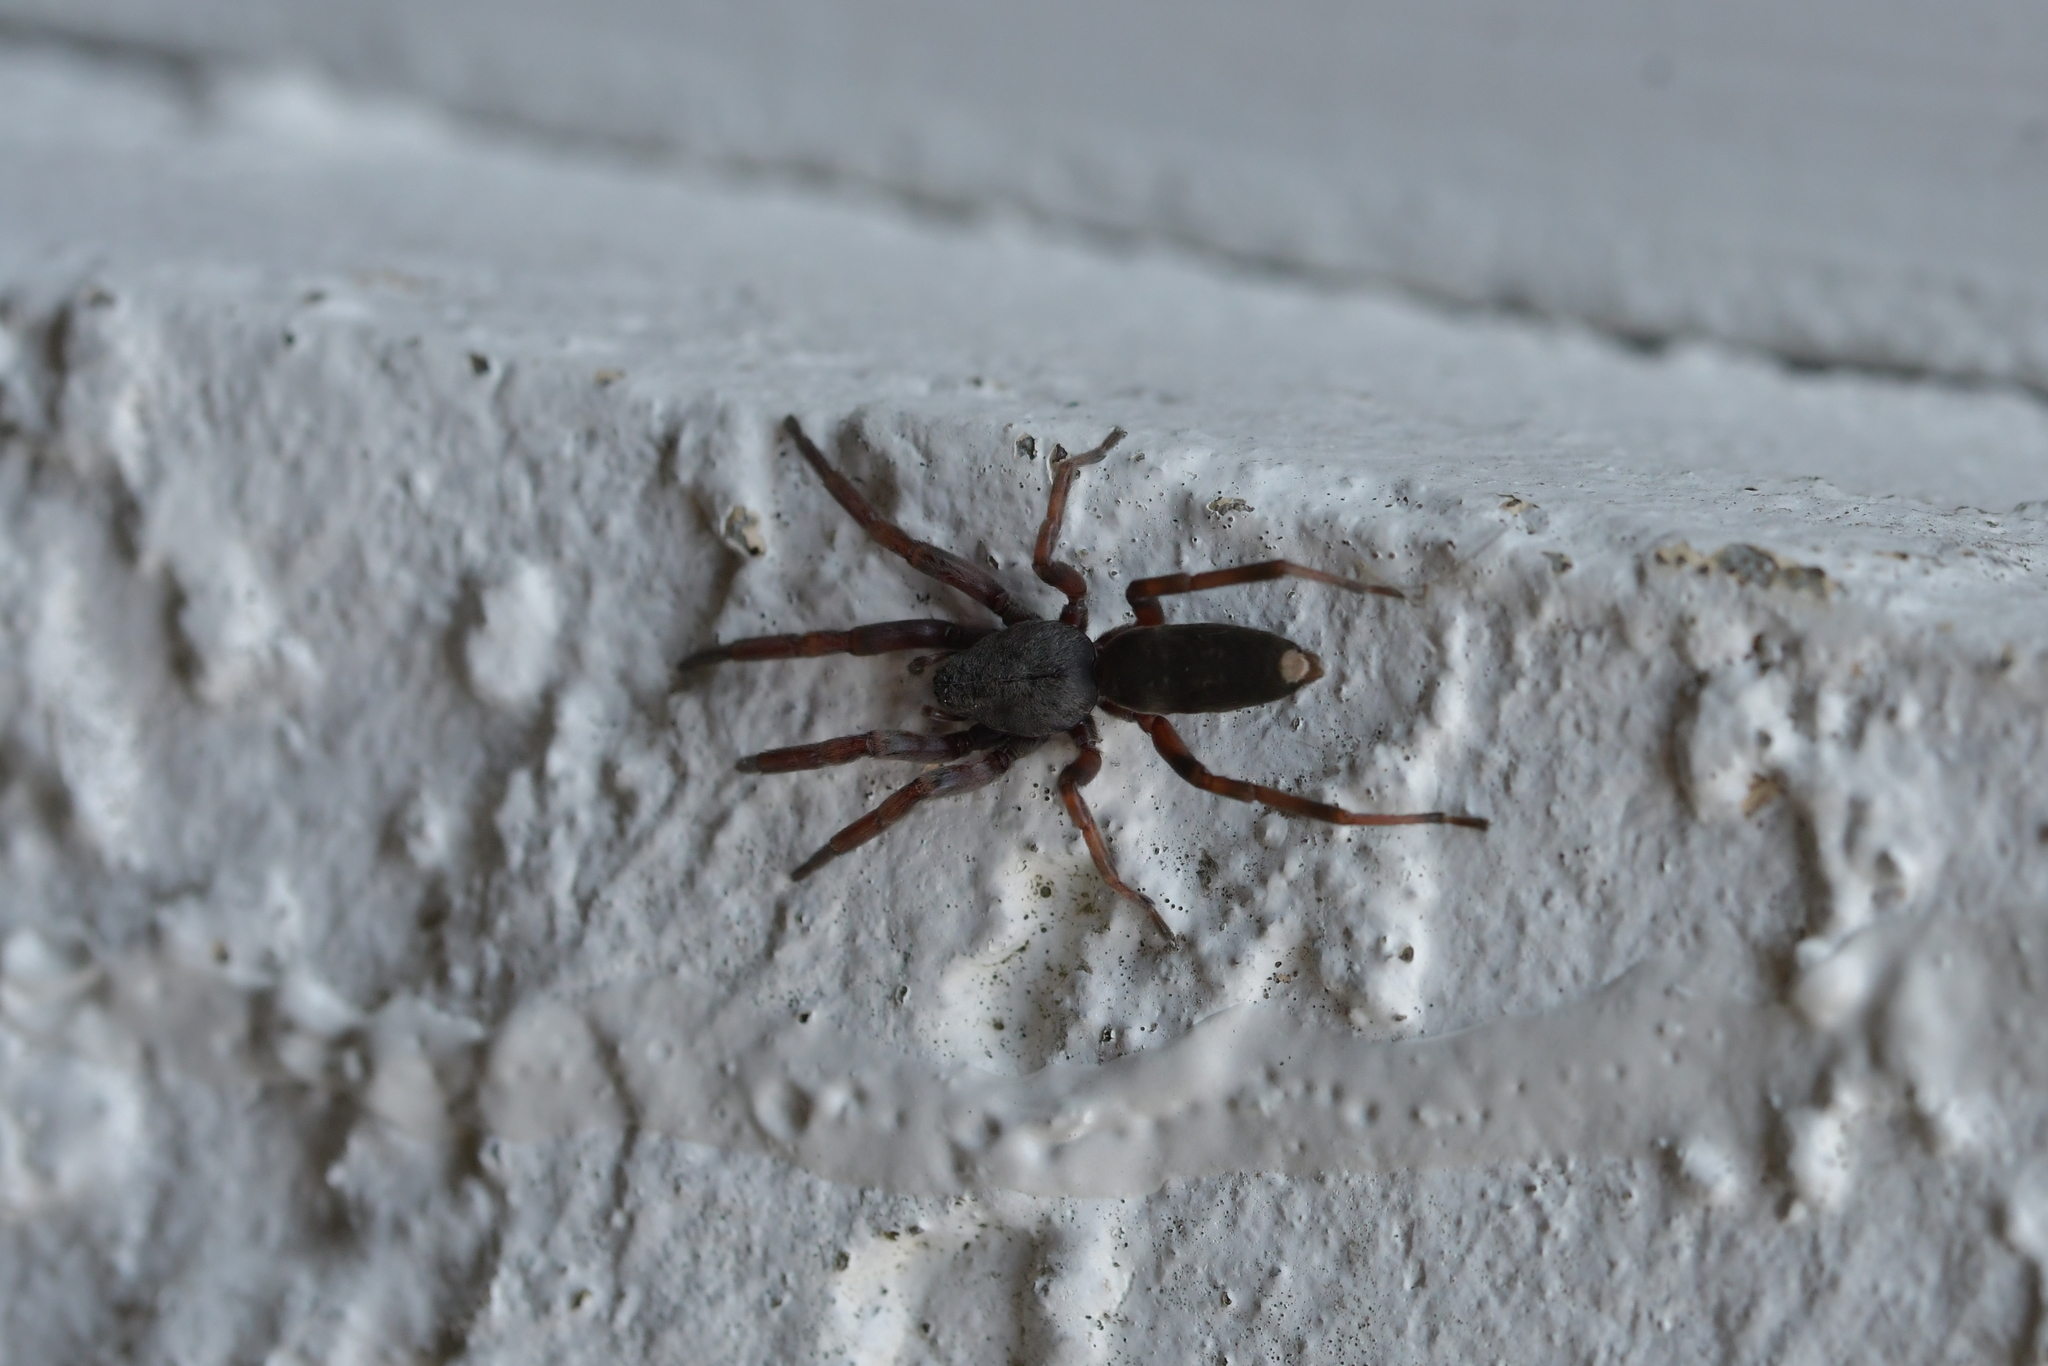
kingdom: Animalia
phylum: Arthropoda
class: Arachnida
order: Araneae
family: Lamponidae
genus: Lampona
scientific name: Lampona murina
